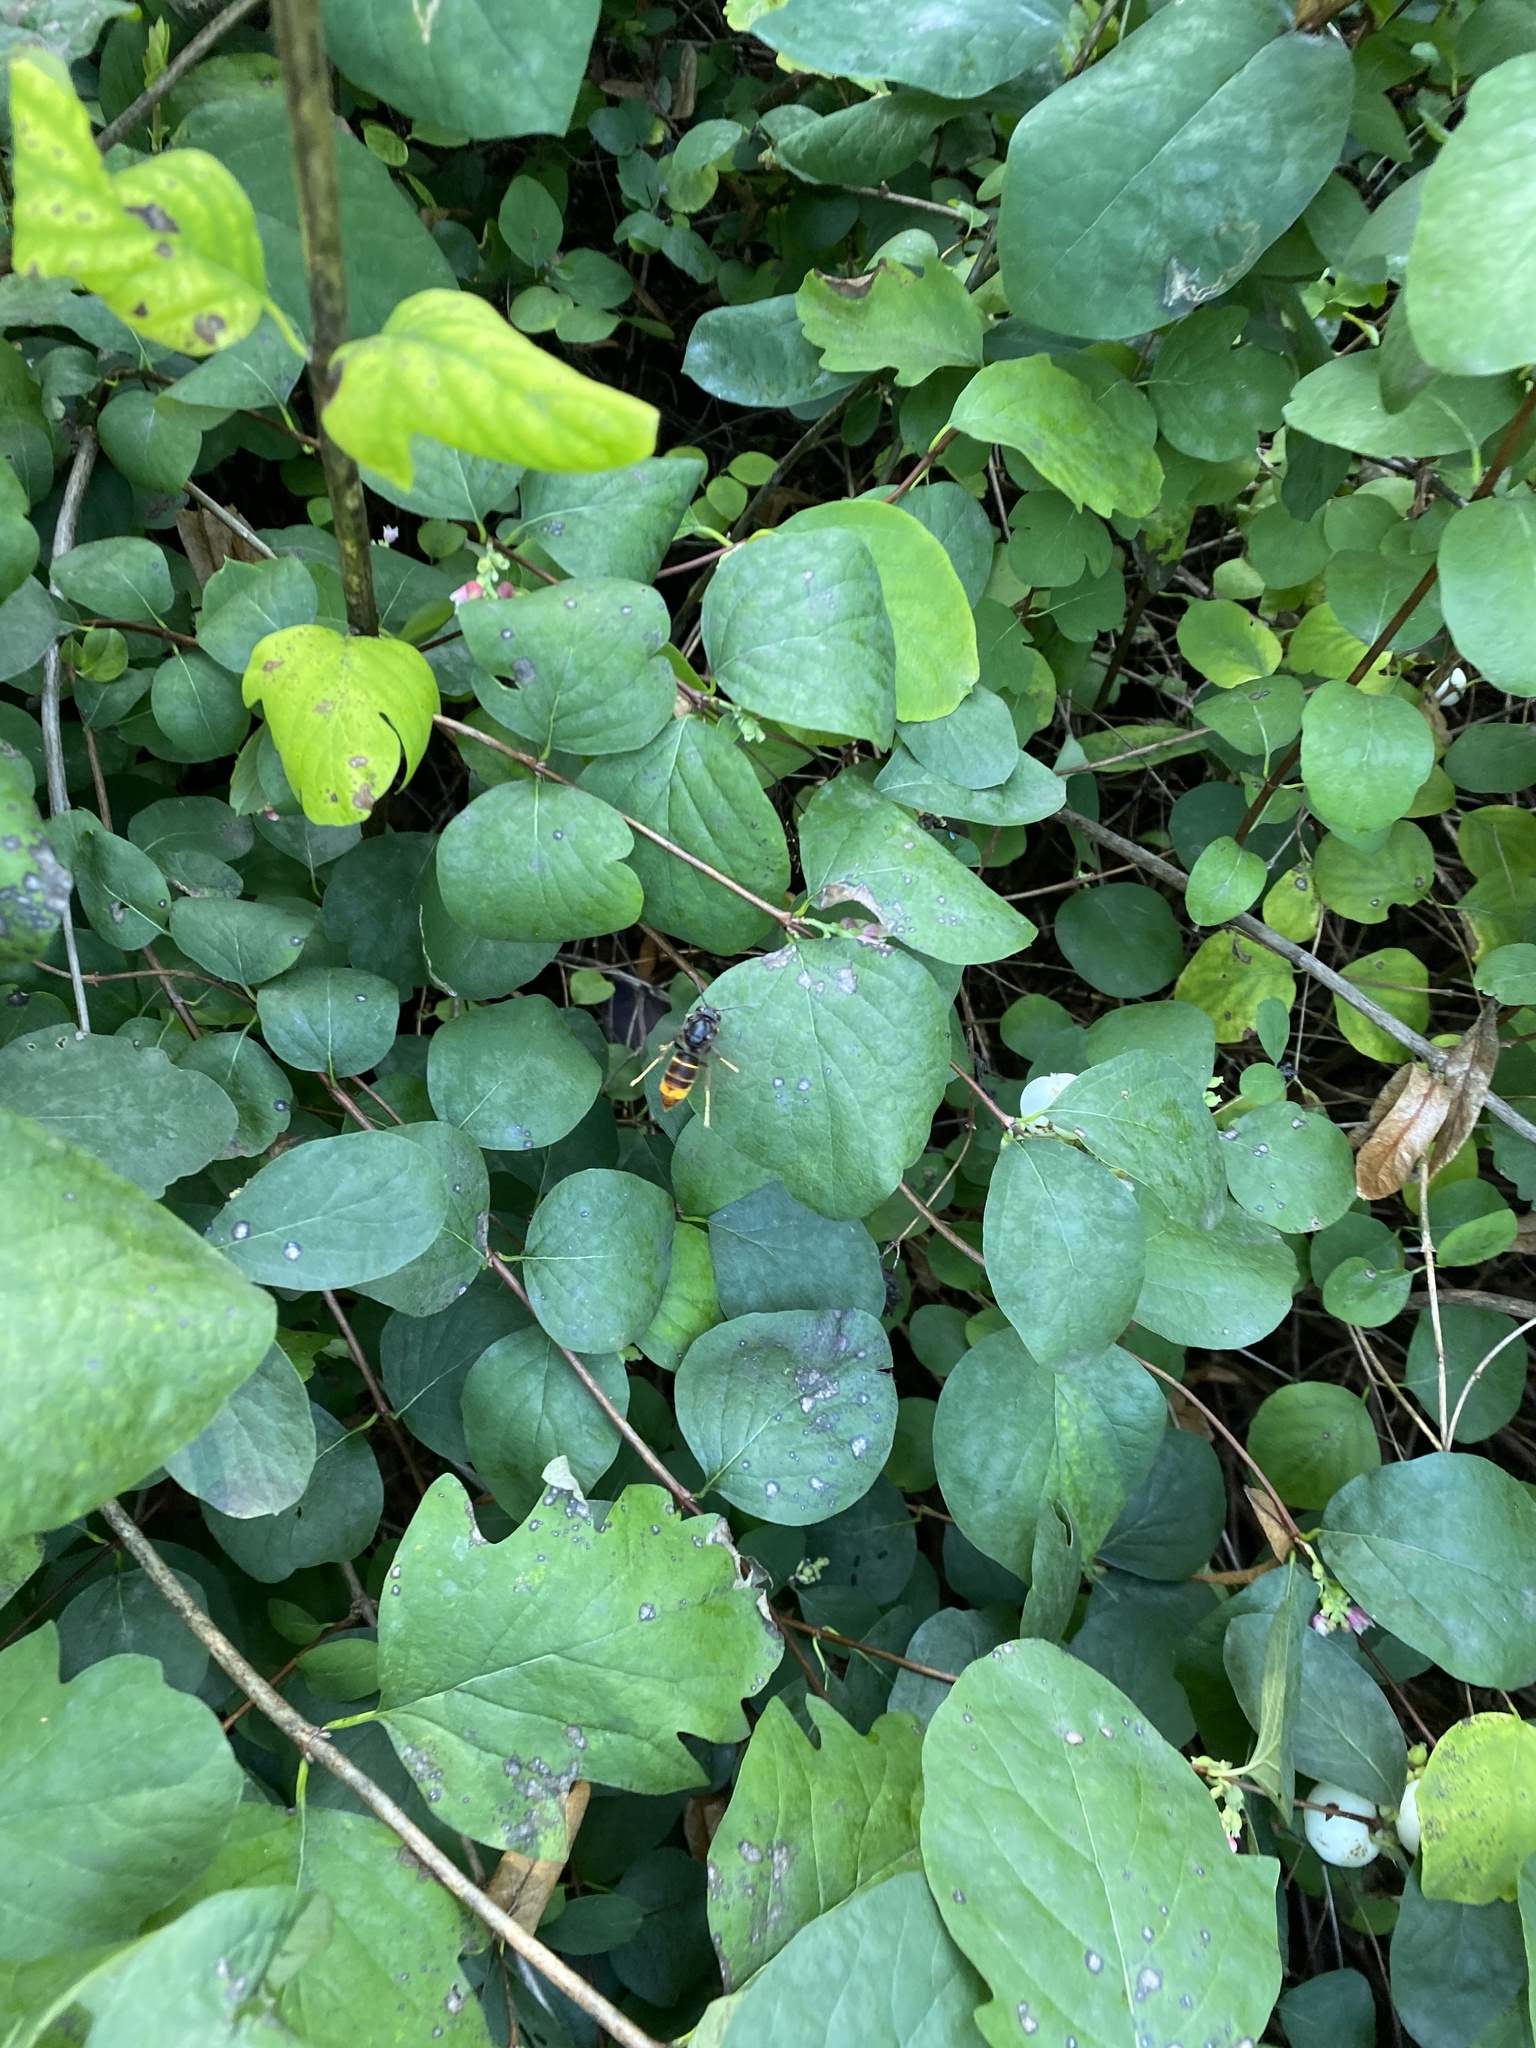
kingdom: Animalia
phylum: Arthropoda
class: Insecta
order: Hymenoptera
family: Vespidae
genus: Vespa
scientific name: Vespa velutina
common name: Asian hornet
